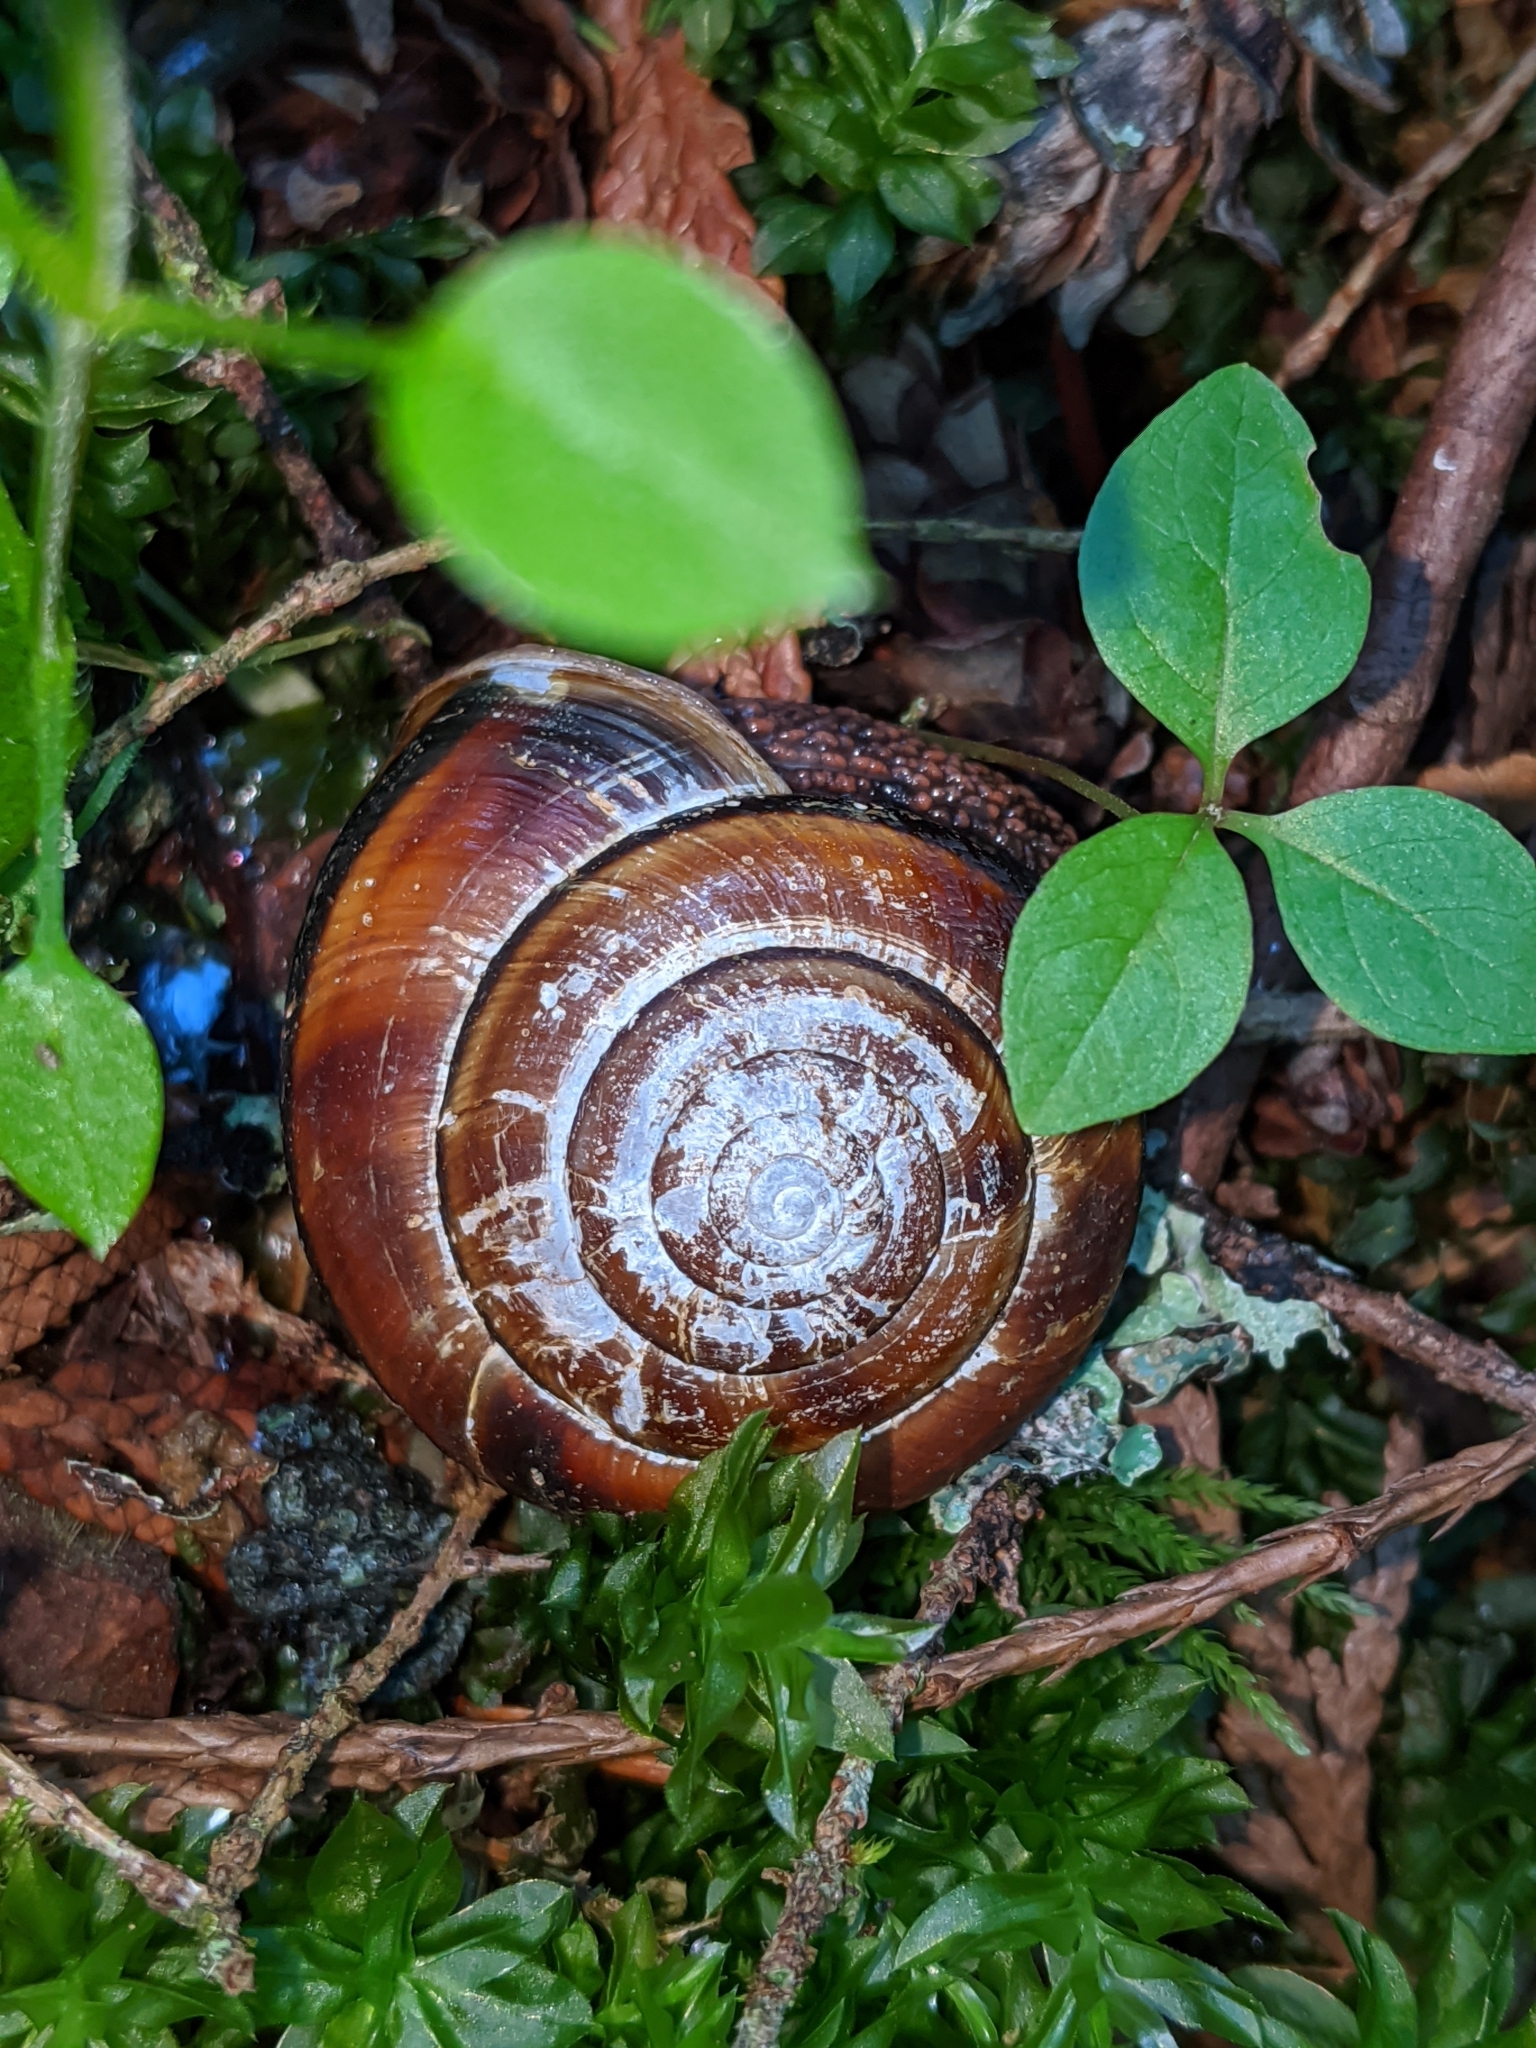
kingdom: Animalia
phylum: Mollusca
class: Gastropoda
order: Stylommatophora
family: Xanthonychidae
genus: Monadenia
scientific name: Monadenia fidelis
